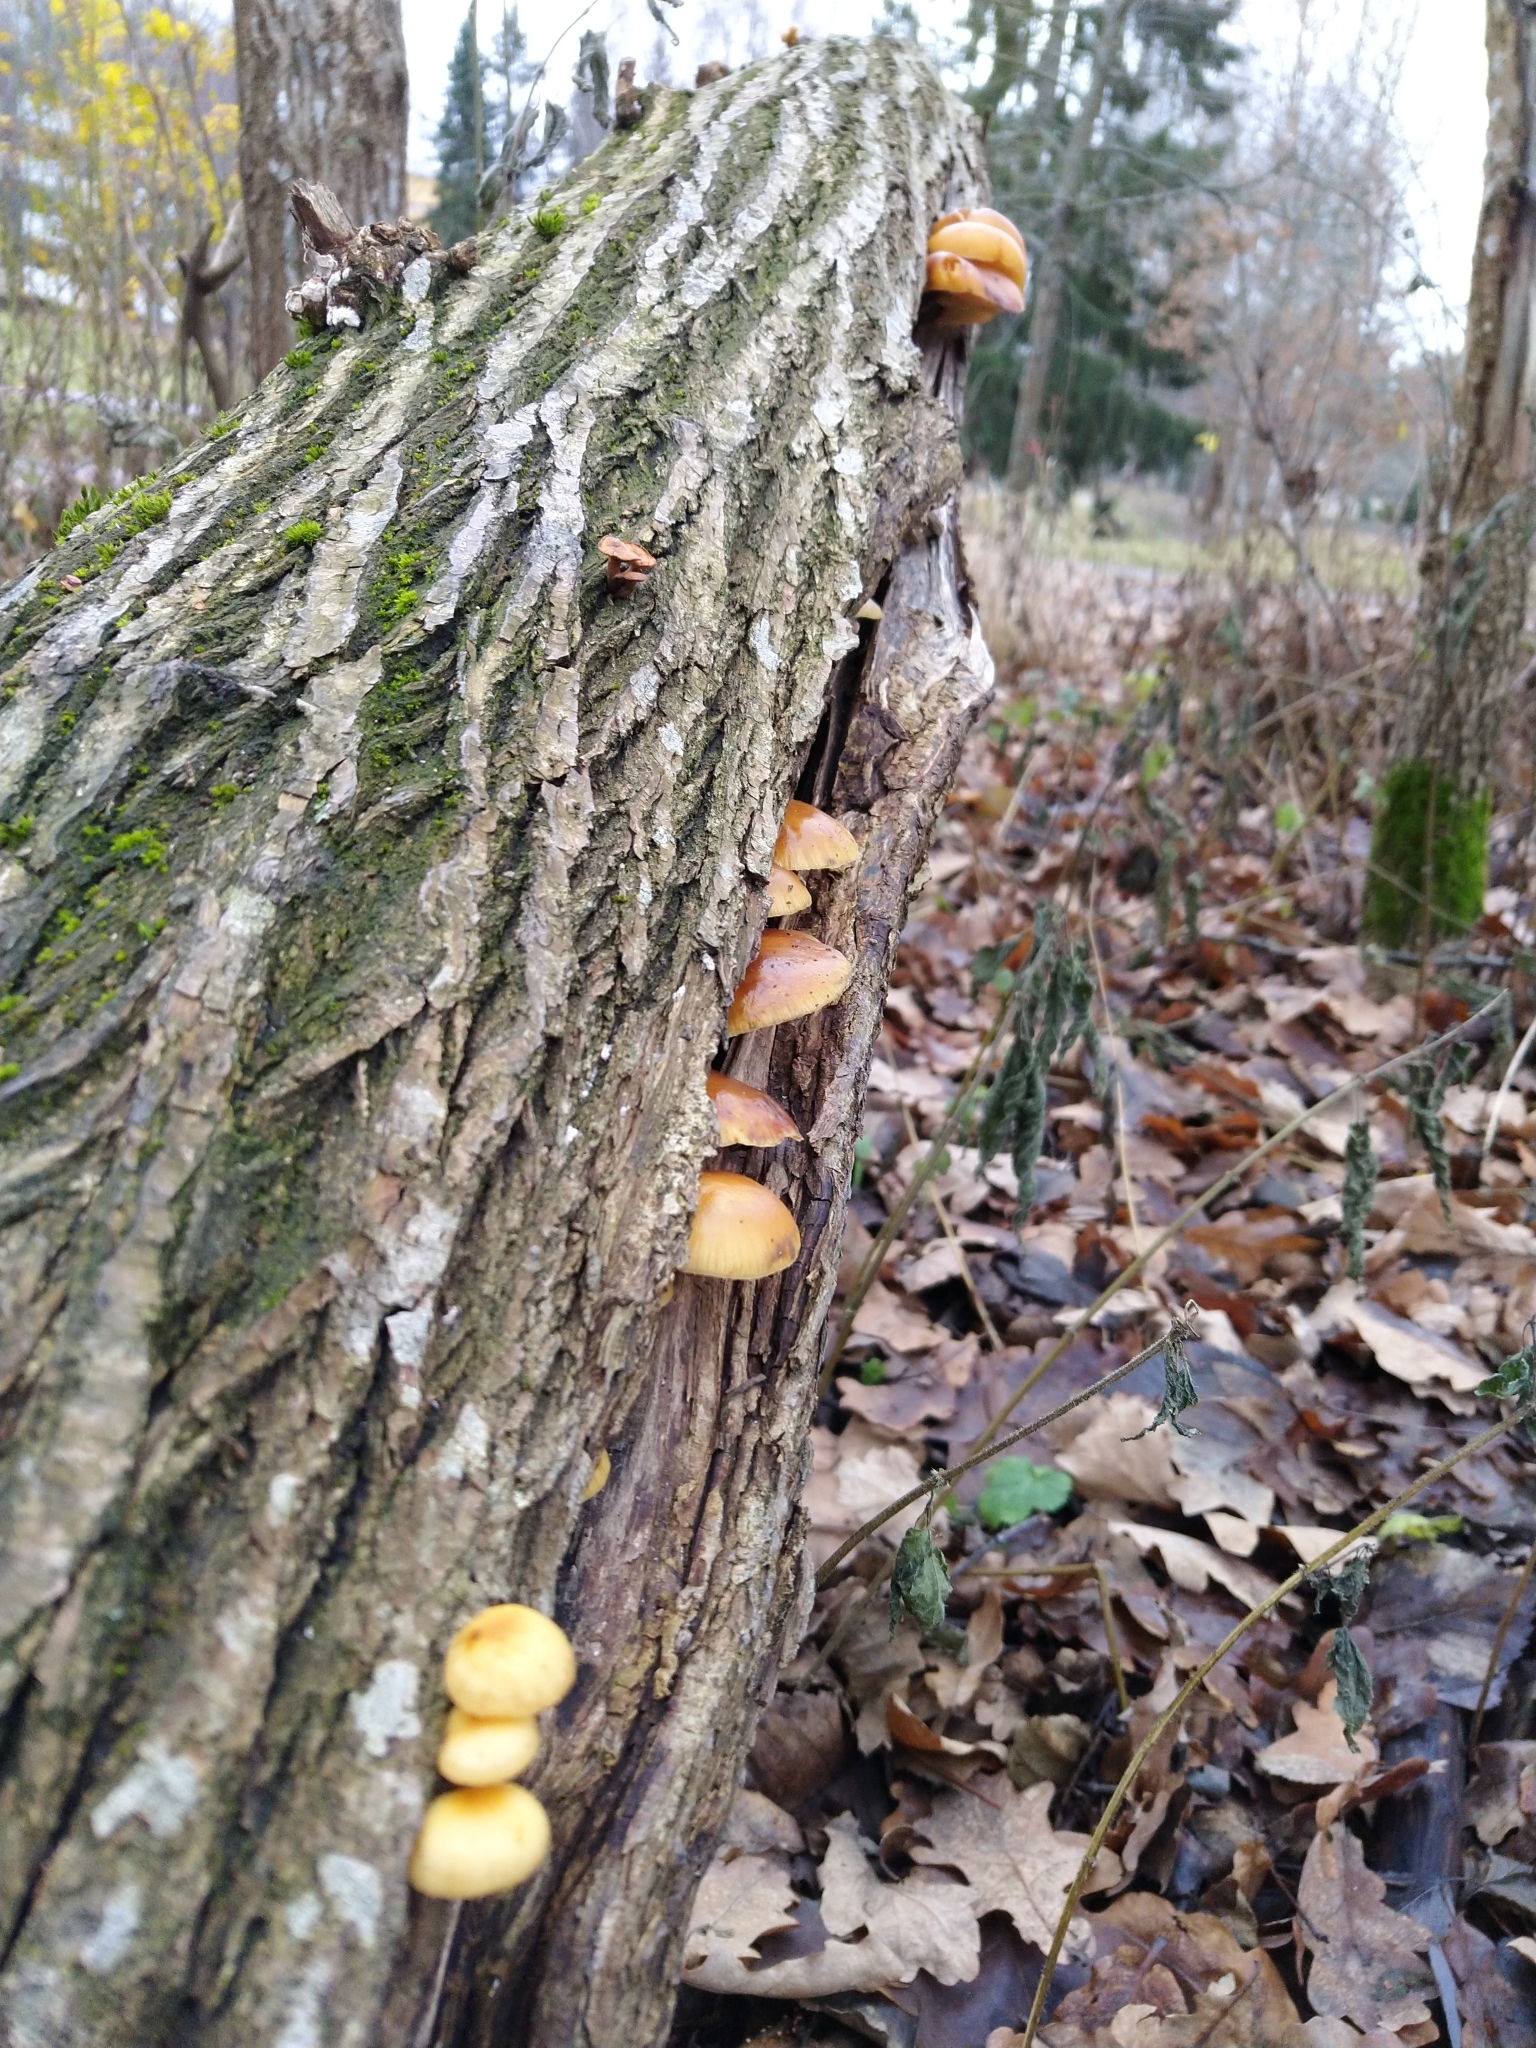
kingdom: Fungi
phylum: Basidiomycota
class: Agaricomycetes
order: Agaricales
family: Physalacriaceae
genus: Flammulina
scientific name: Flammulina
